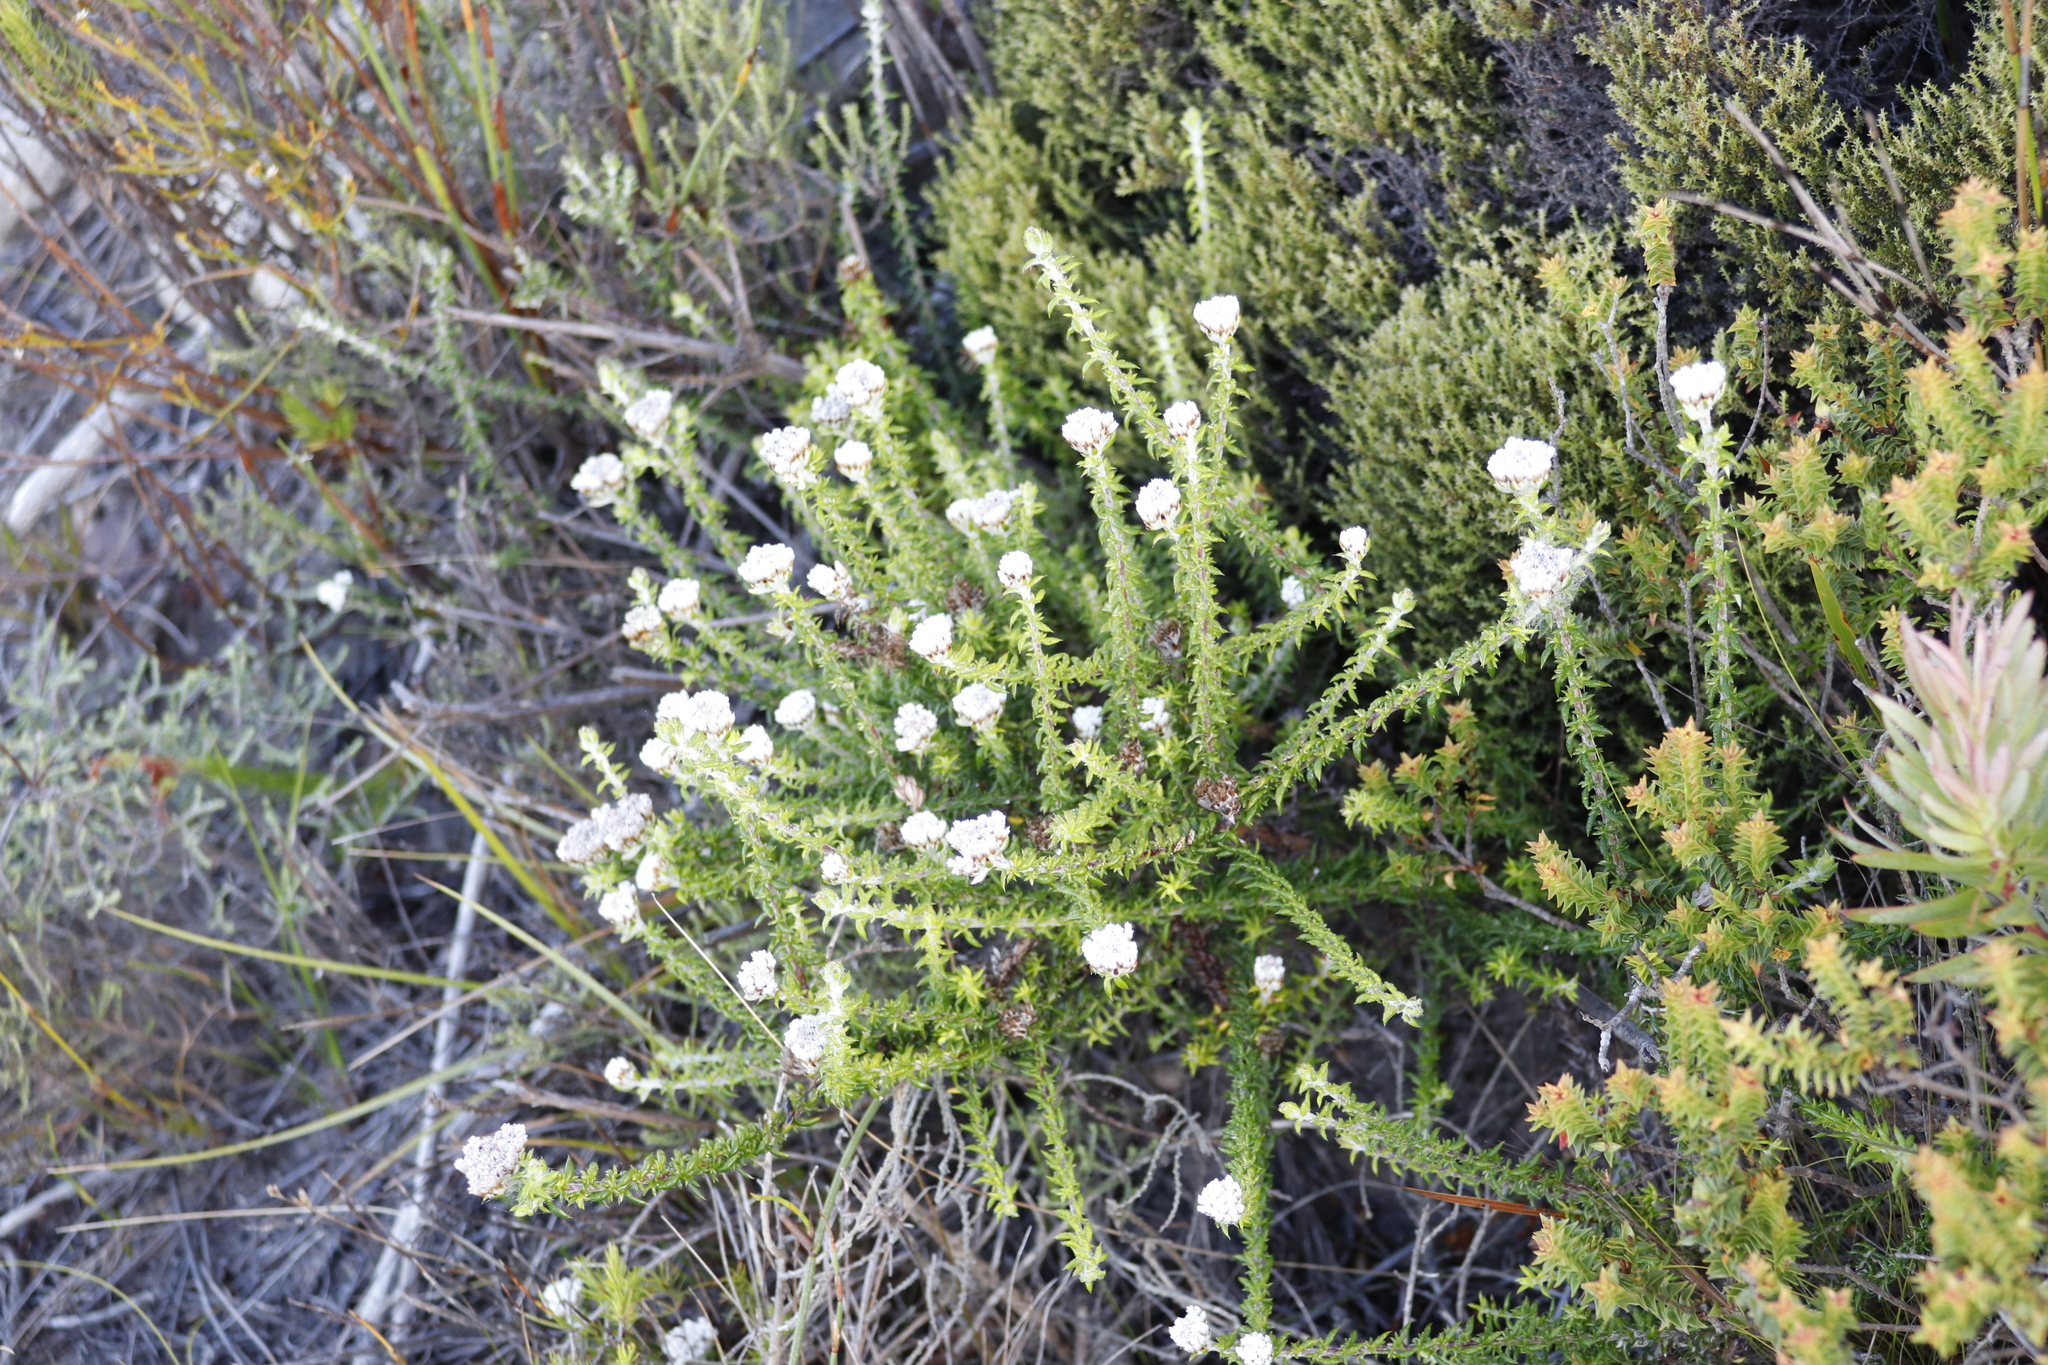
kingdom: Plantae
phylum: Tracheophyta
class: Magnoliopsida
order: Asterales
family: Asteraceae
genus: Metalasia
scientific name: Metalasia divergens
